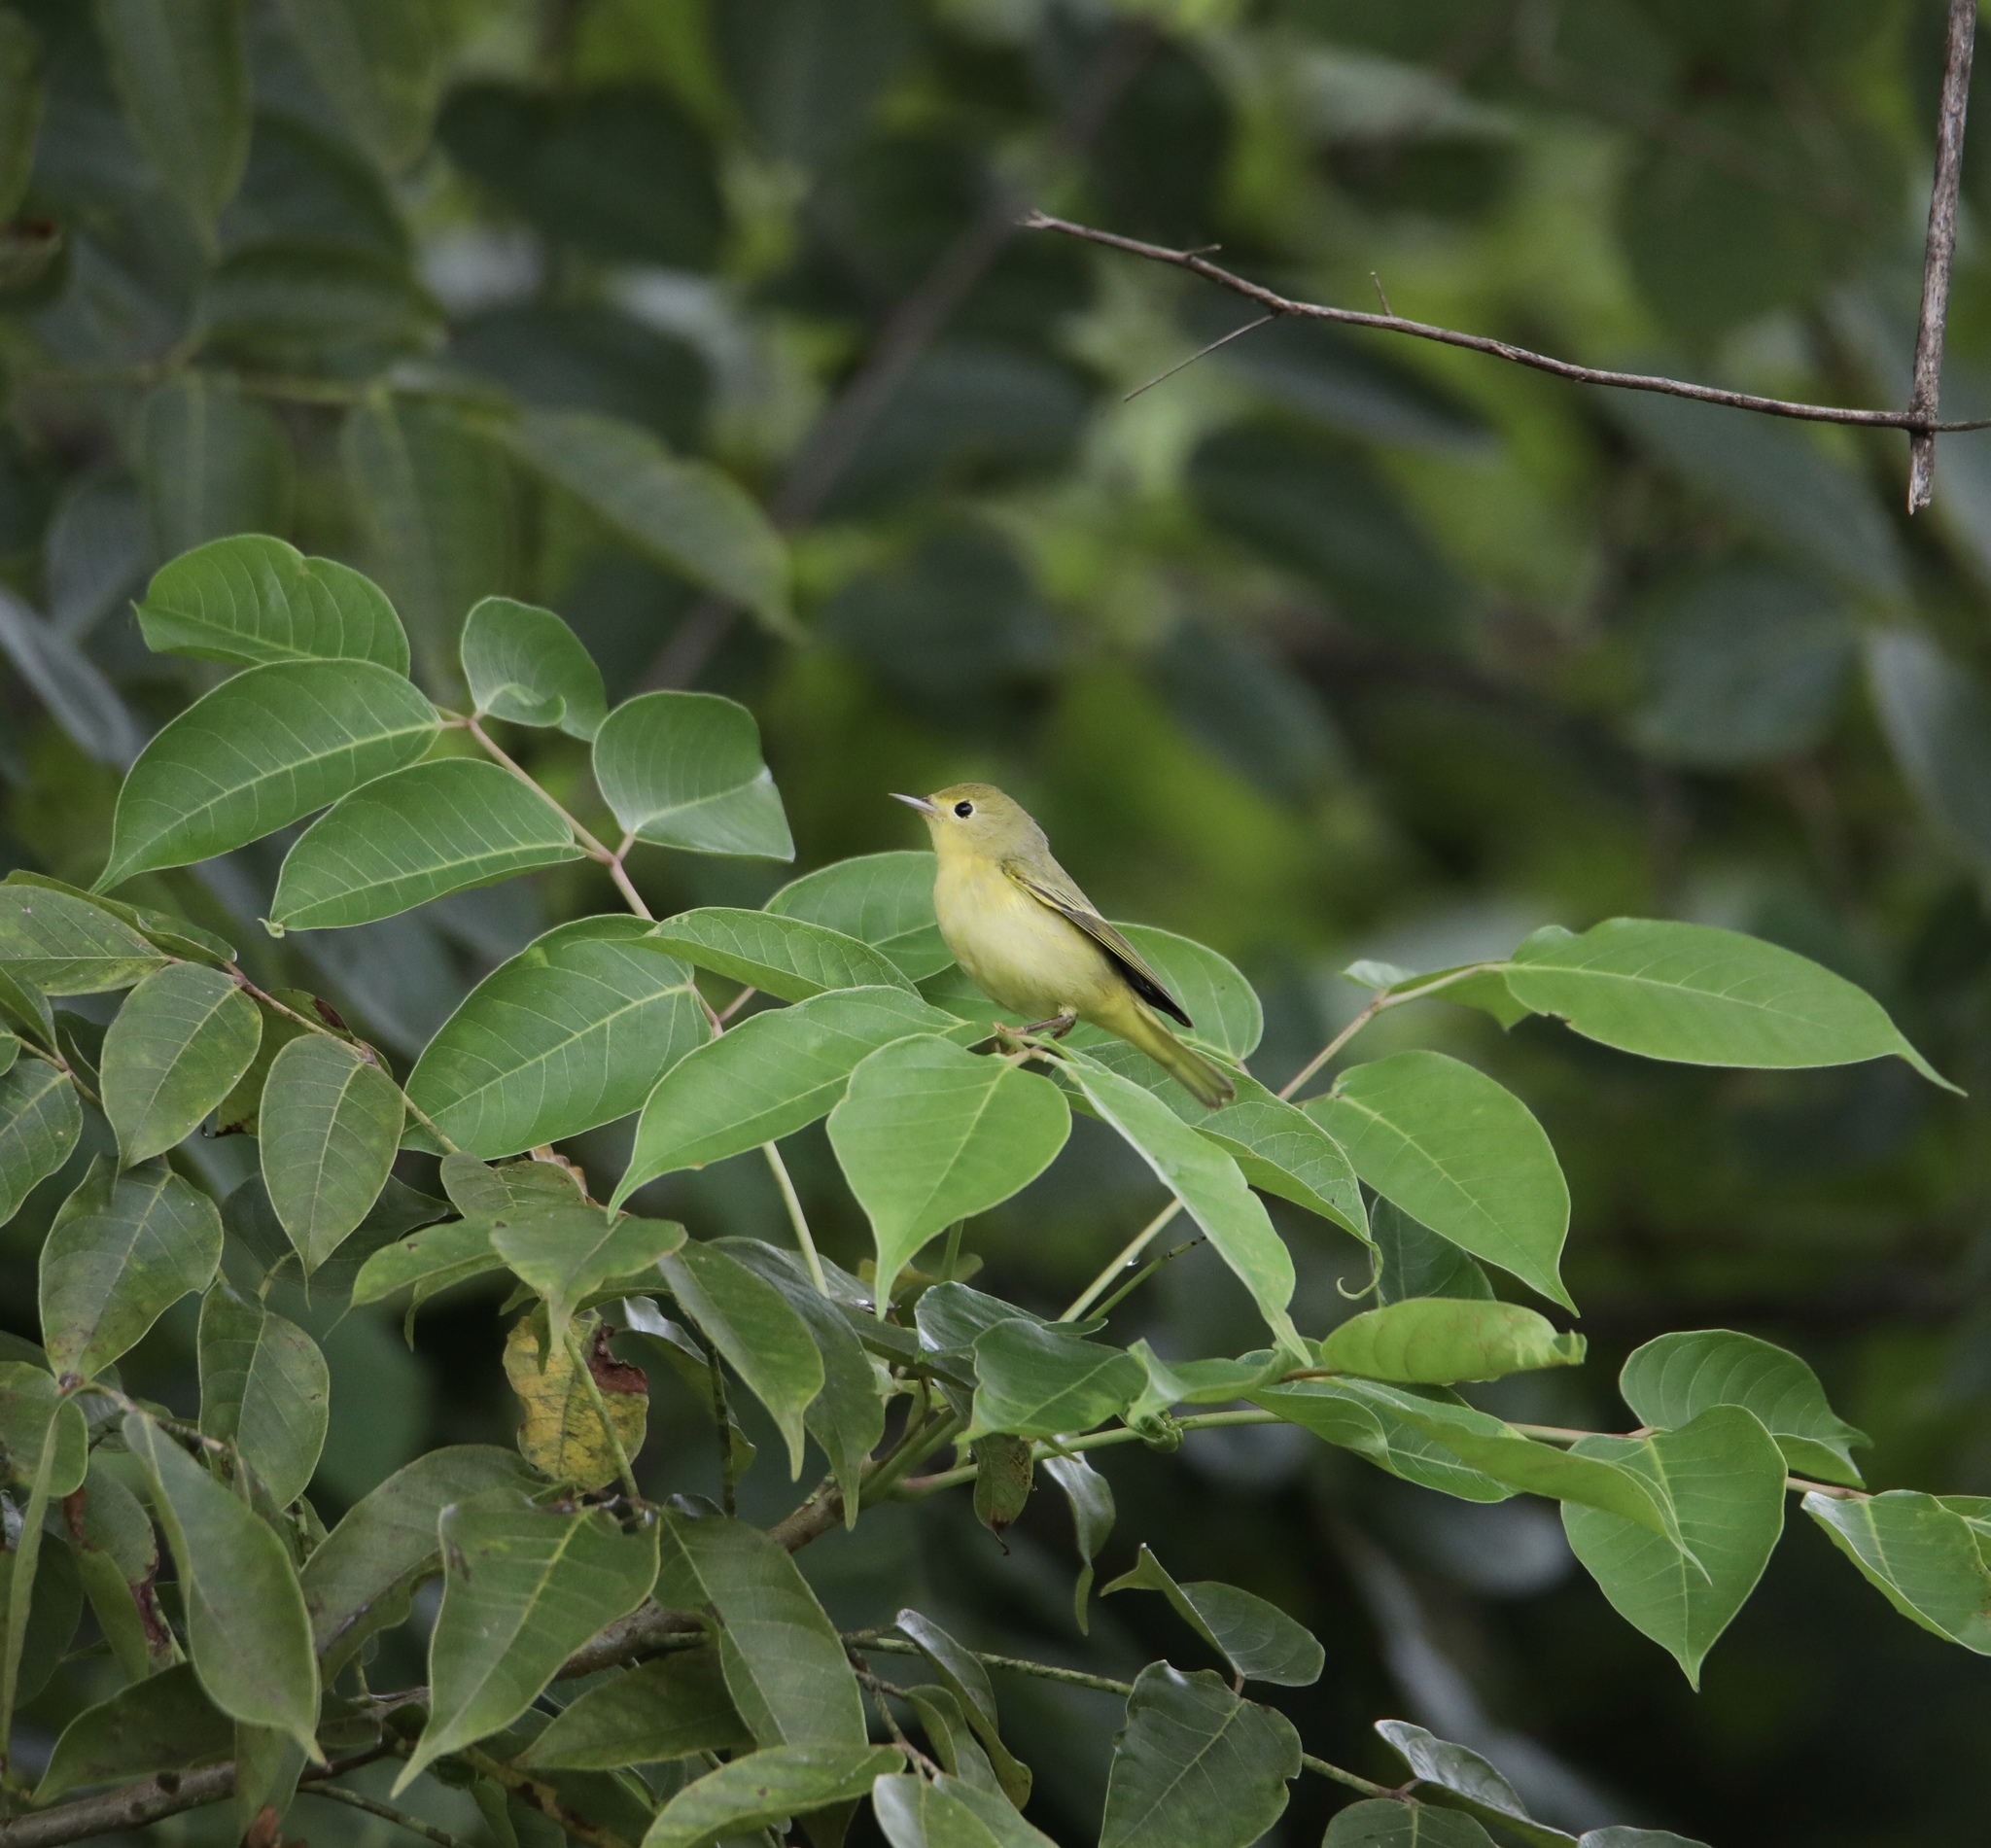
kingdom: Animalia
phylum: Chordata
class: Aves
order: Passeriformes
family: Parulidae
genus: Setophaga
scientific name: Setophaga petechia
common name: Yellow warbler
